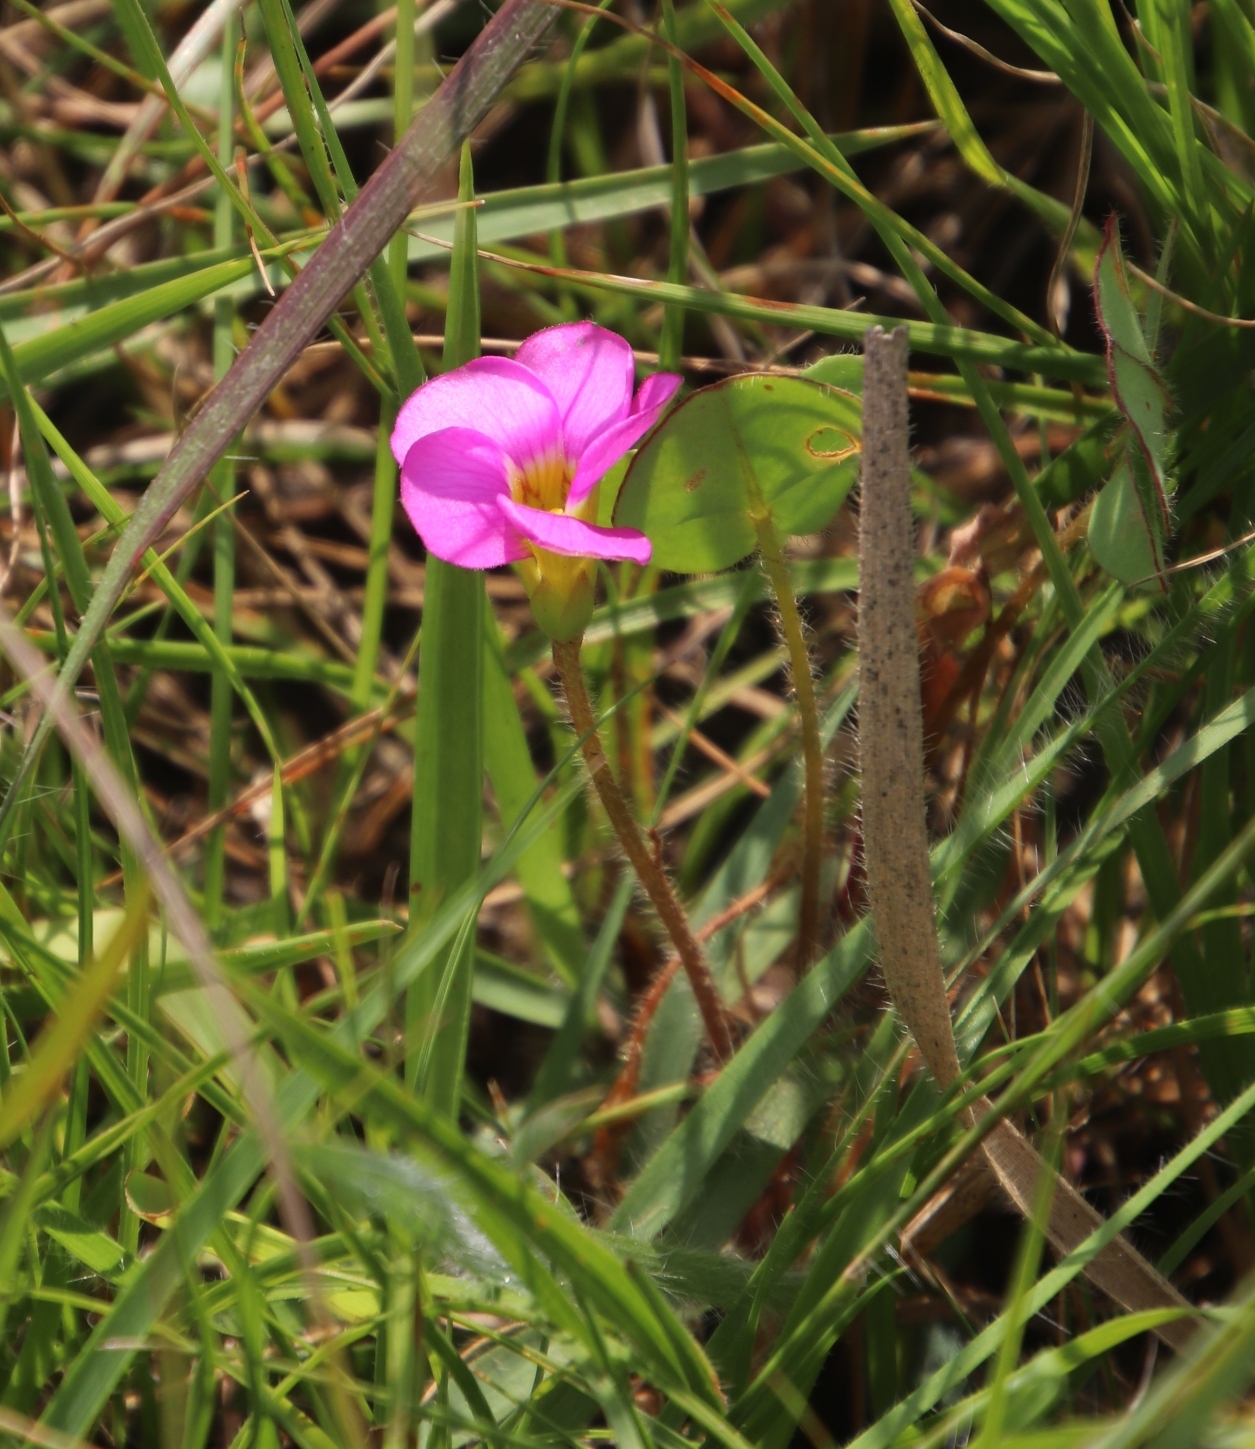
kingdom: Plantae
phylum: Tracheophyta
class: Magnoliopsida
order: Oxalidales
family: Oxalidaceae
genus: Oxalis
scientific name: Oxalis obliquifolia
